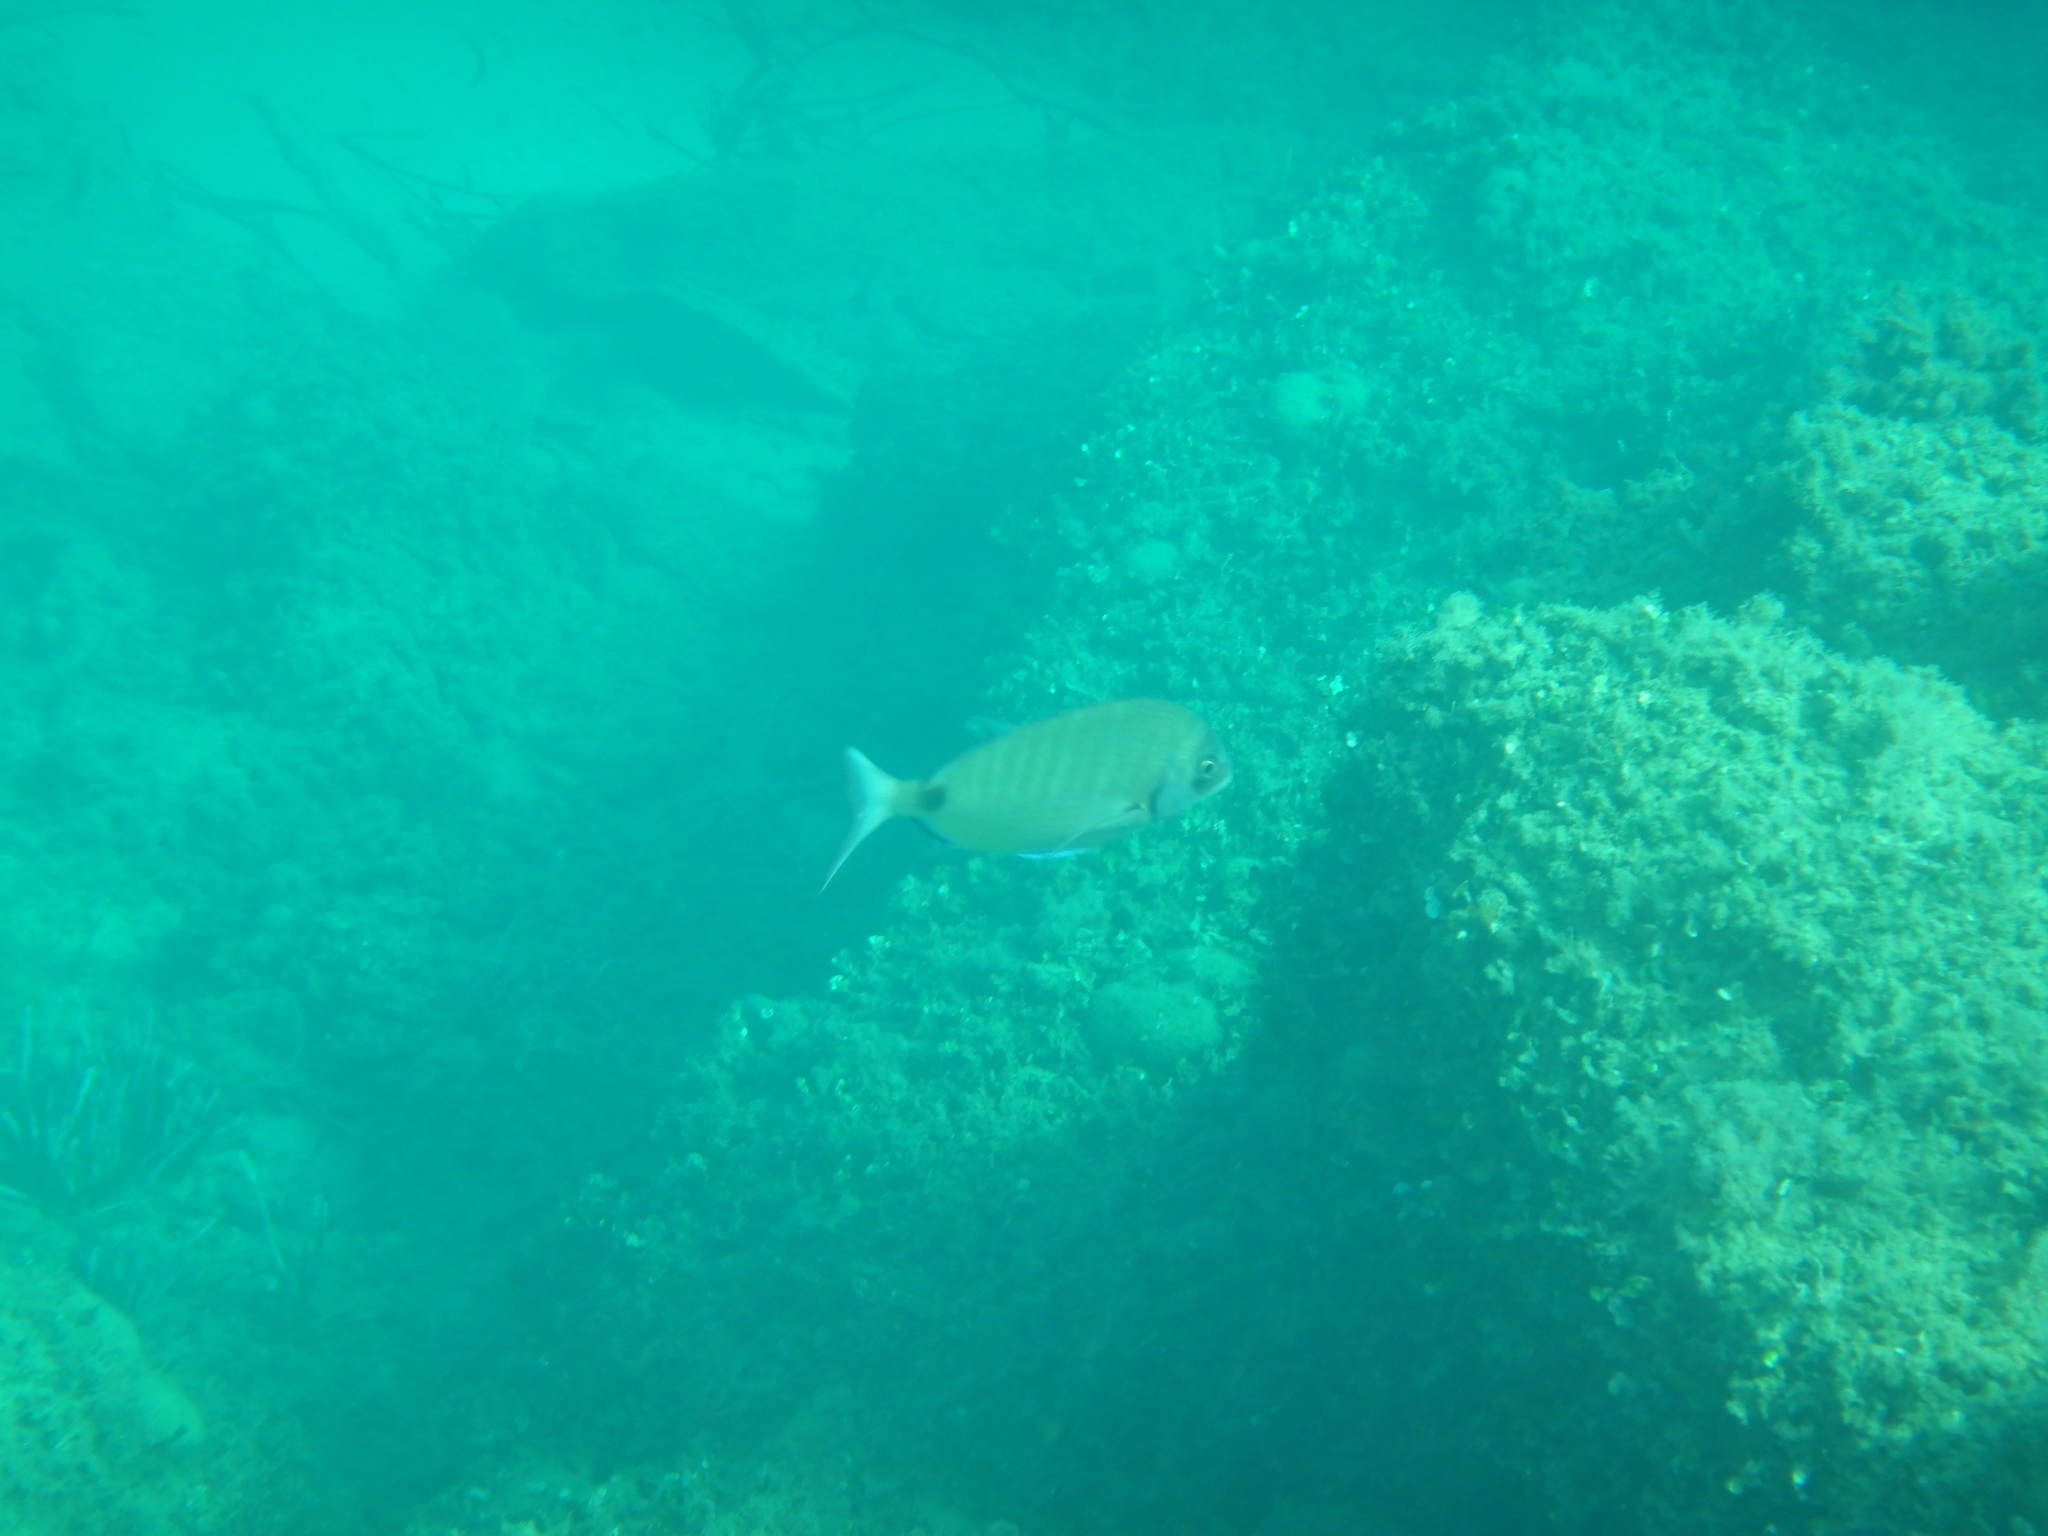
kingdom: Animalia
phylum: Chordata
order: Perciformes
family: Sparidae
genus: Diplodus
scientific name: Diplodus sargus
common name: White seabream
